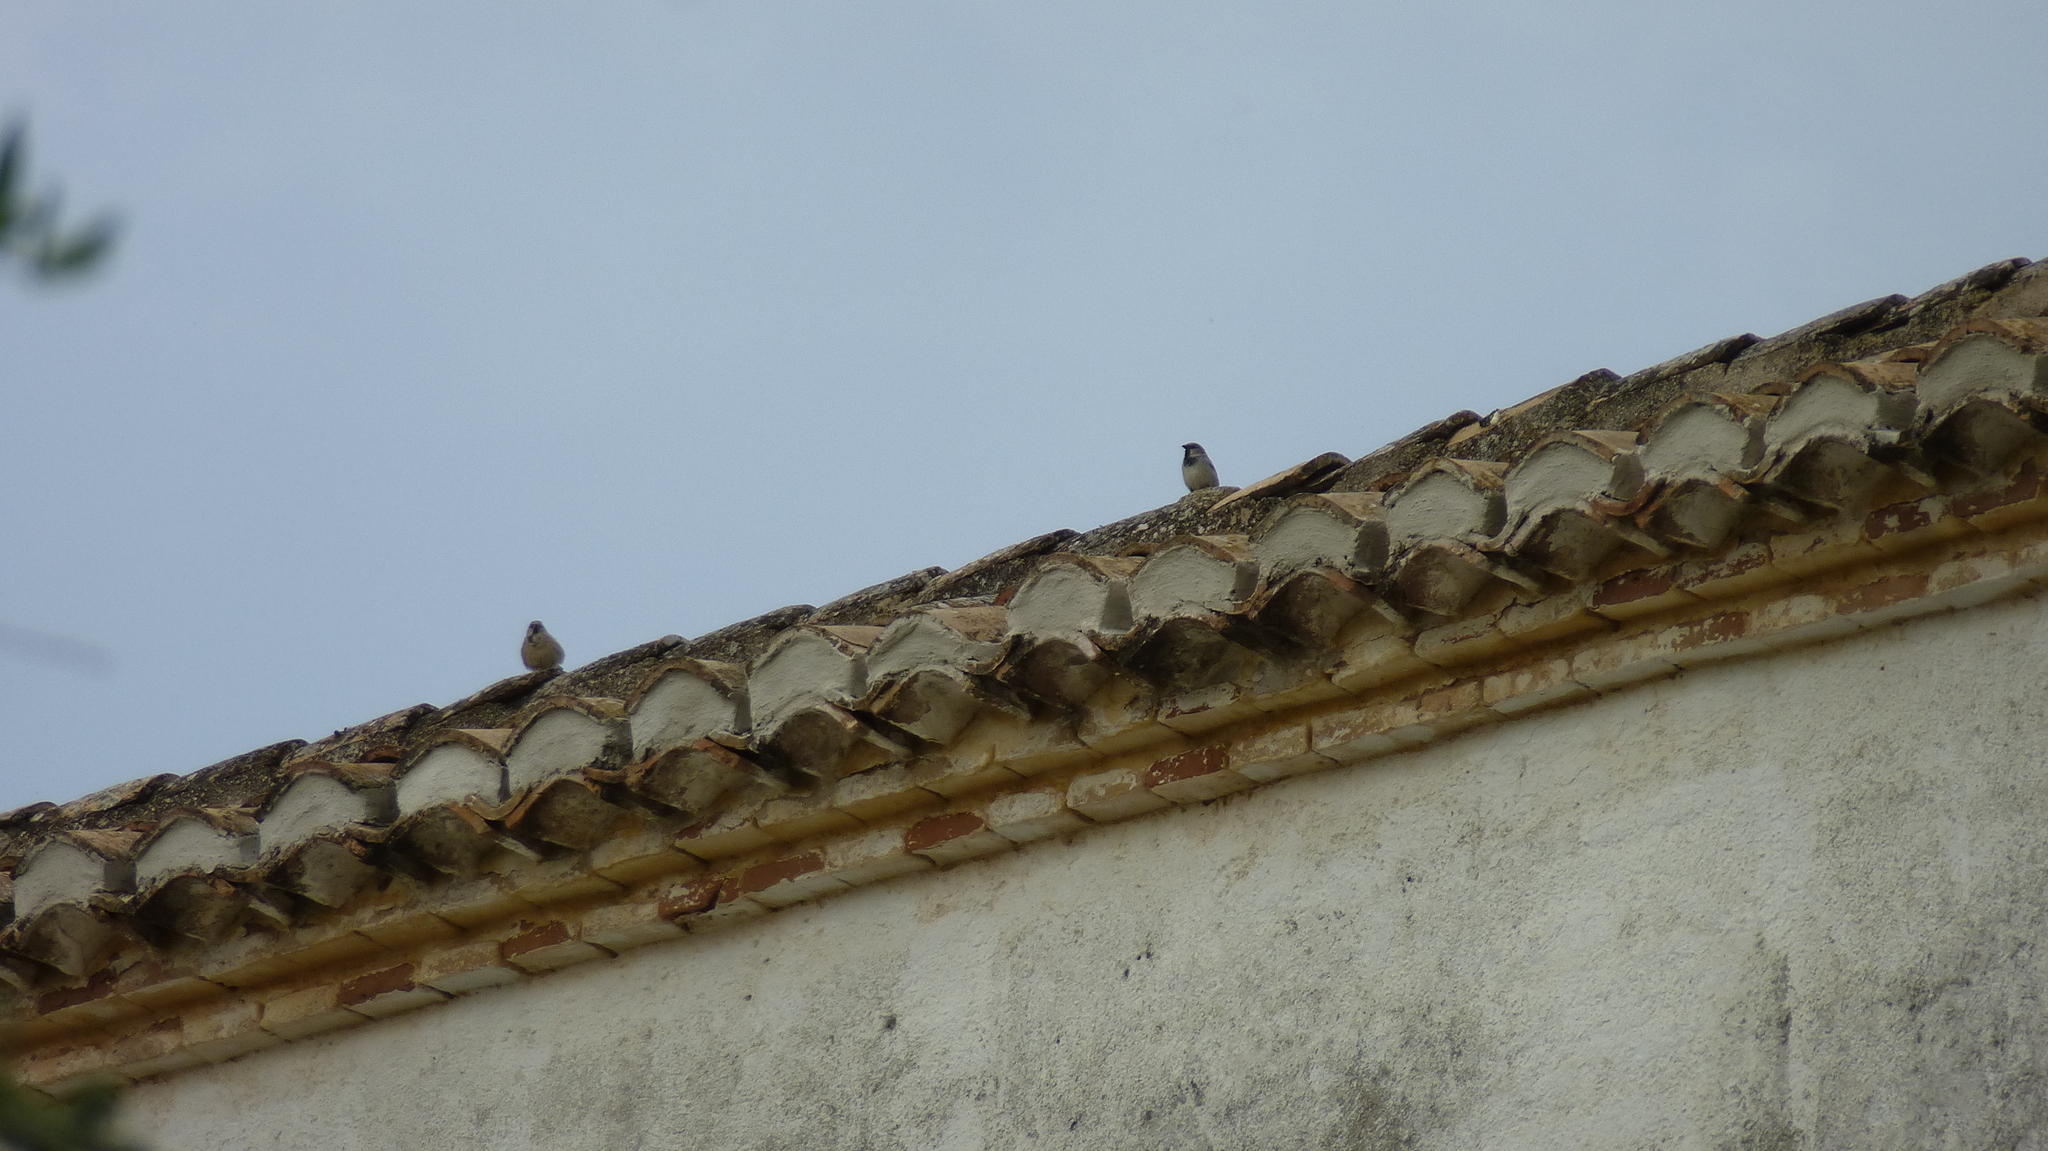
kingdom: Animalia
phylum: Chordata
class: Aves
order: Passeriformes
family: Passeridae
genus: Passer
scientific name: Passer domesticus
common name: House sparrow
